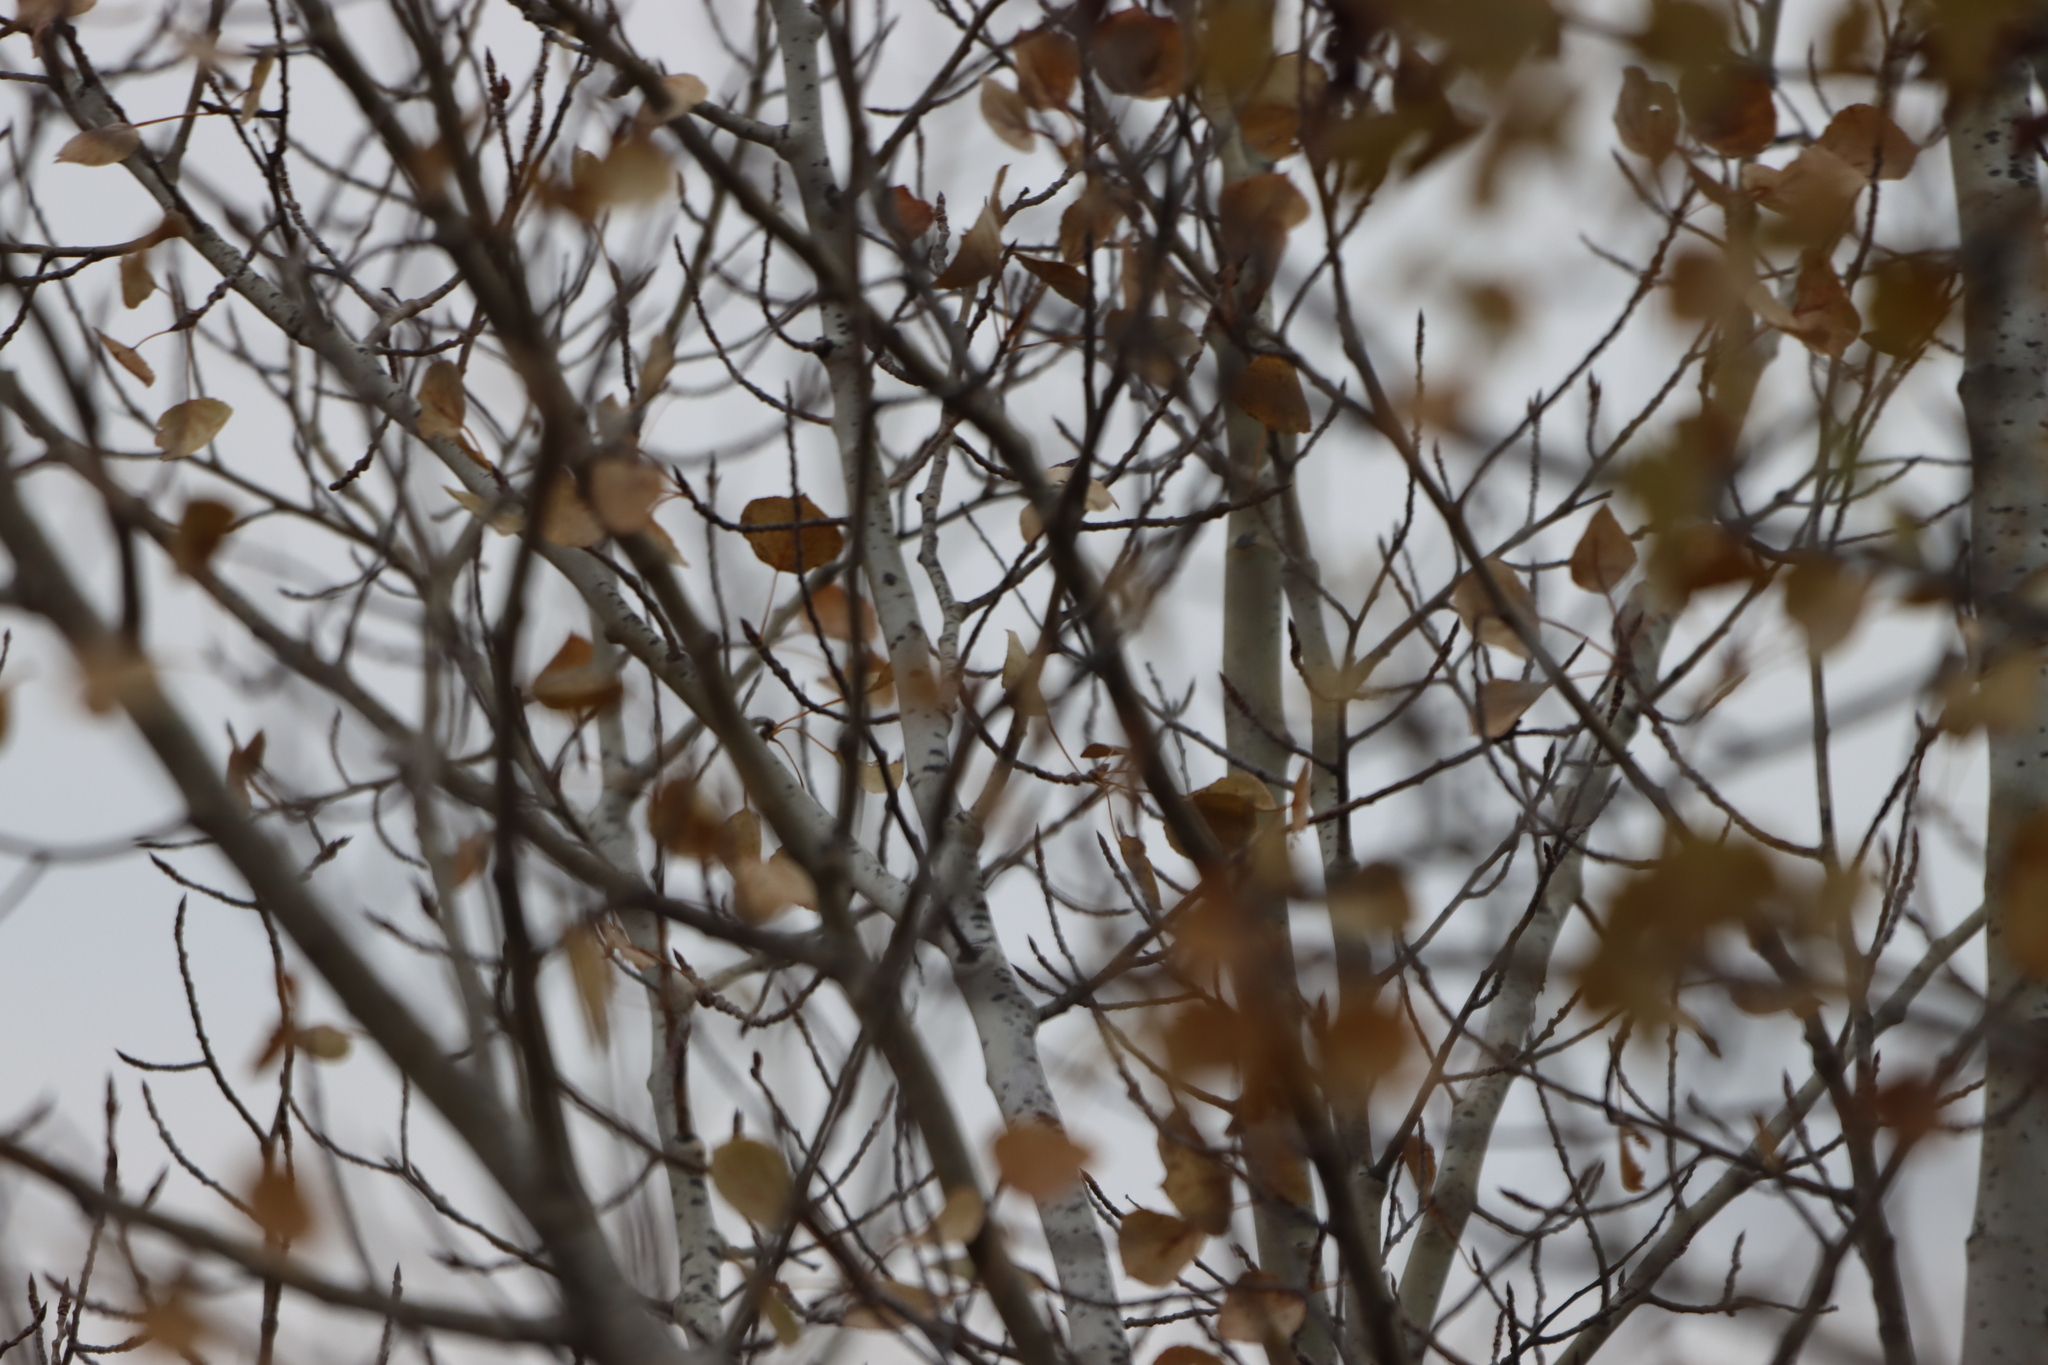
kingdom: Plantae
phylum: Tracheophyta
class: Magnoliopsida
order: Malpighiales
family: Salicaceae
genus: Populus
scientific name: Populus tremuloides
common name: Quaking aspen
